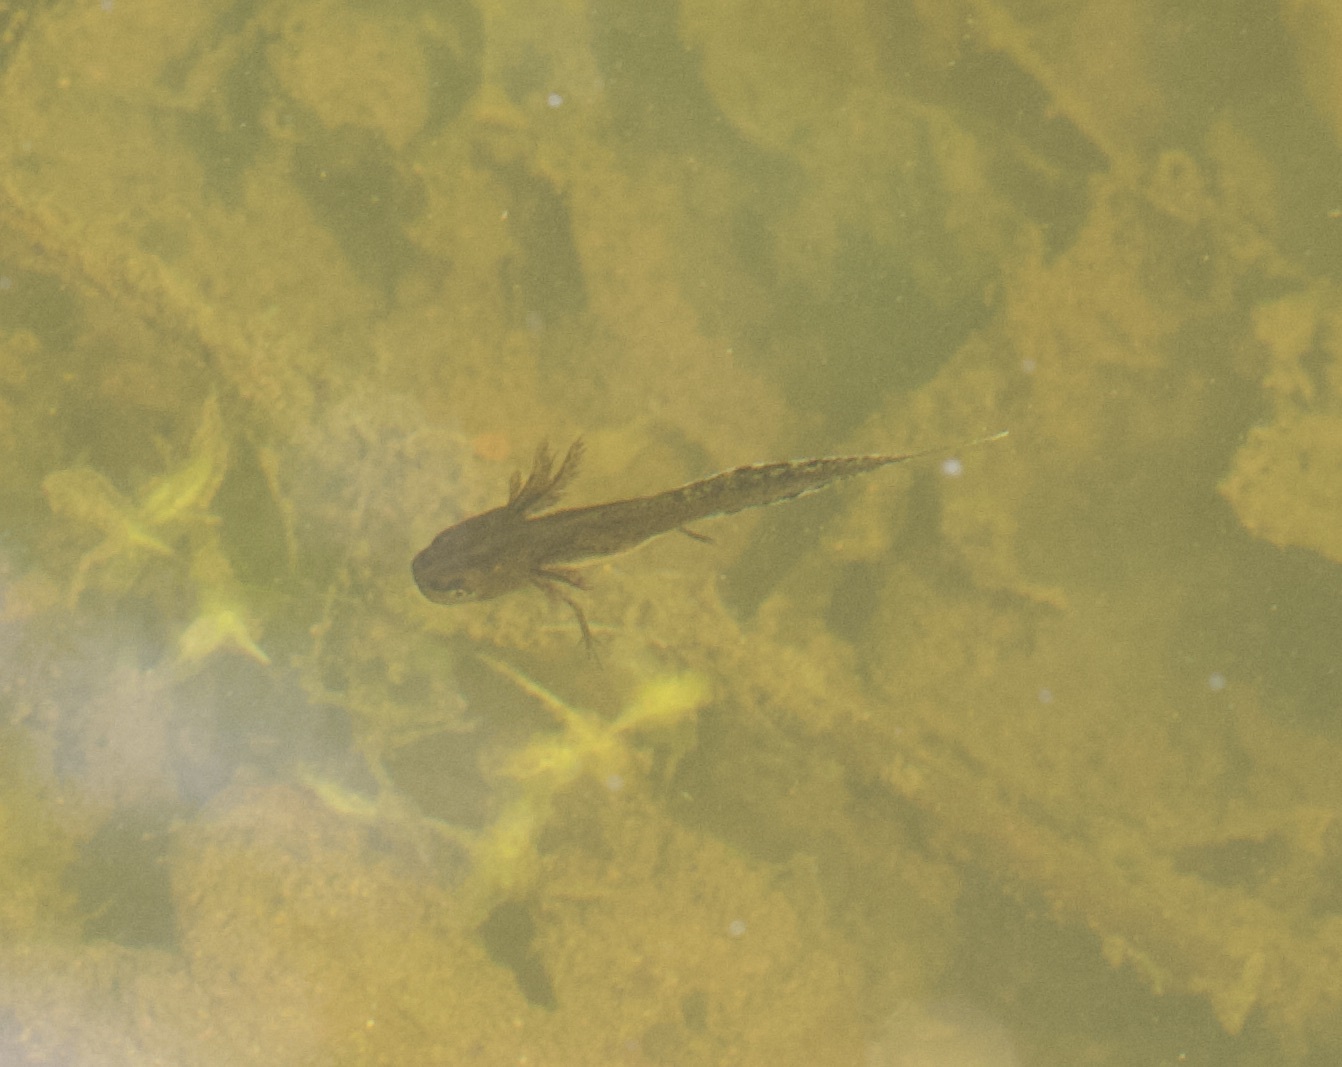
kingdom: Animalia
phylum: Chordata
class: Amphibia
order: Caudata
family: Salamandridae
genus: Triturus
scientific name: Triturus cristatus
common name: Crested newt
